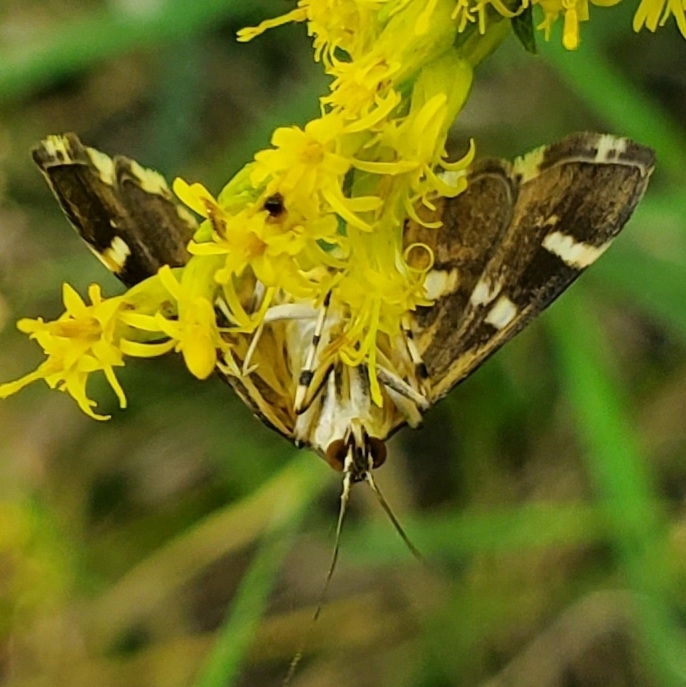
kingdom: Animalia
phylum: Arthropoda
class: Insecta
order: Lepidoptera
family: Crambidae
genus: Hymenia
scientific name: Hymenia perspectalis
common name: Spotted beet webworm
